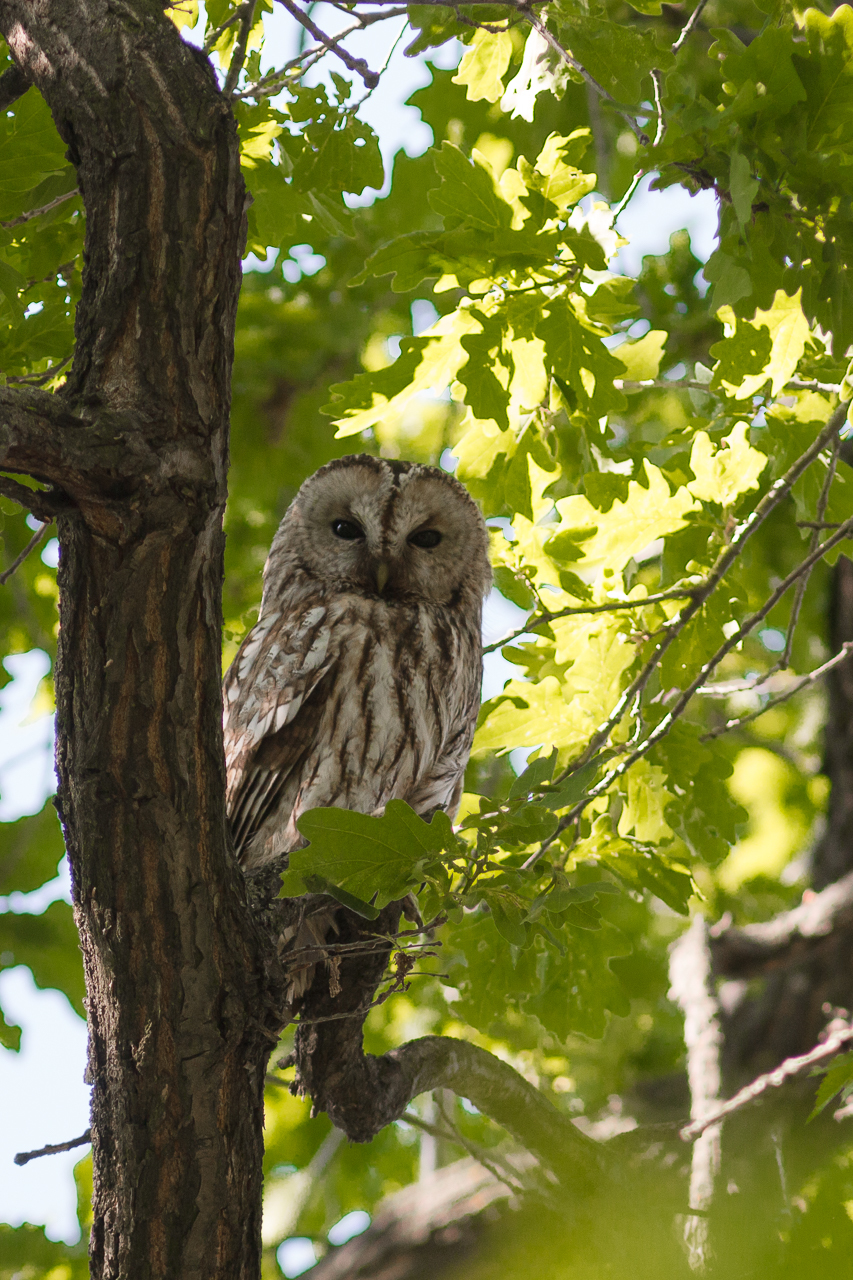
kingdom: Animalia
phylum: Chordata
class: Aves
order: Strigiformes
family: Strigidae
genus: Strix
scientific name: Strix aluco
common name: Tawny owl
